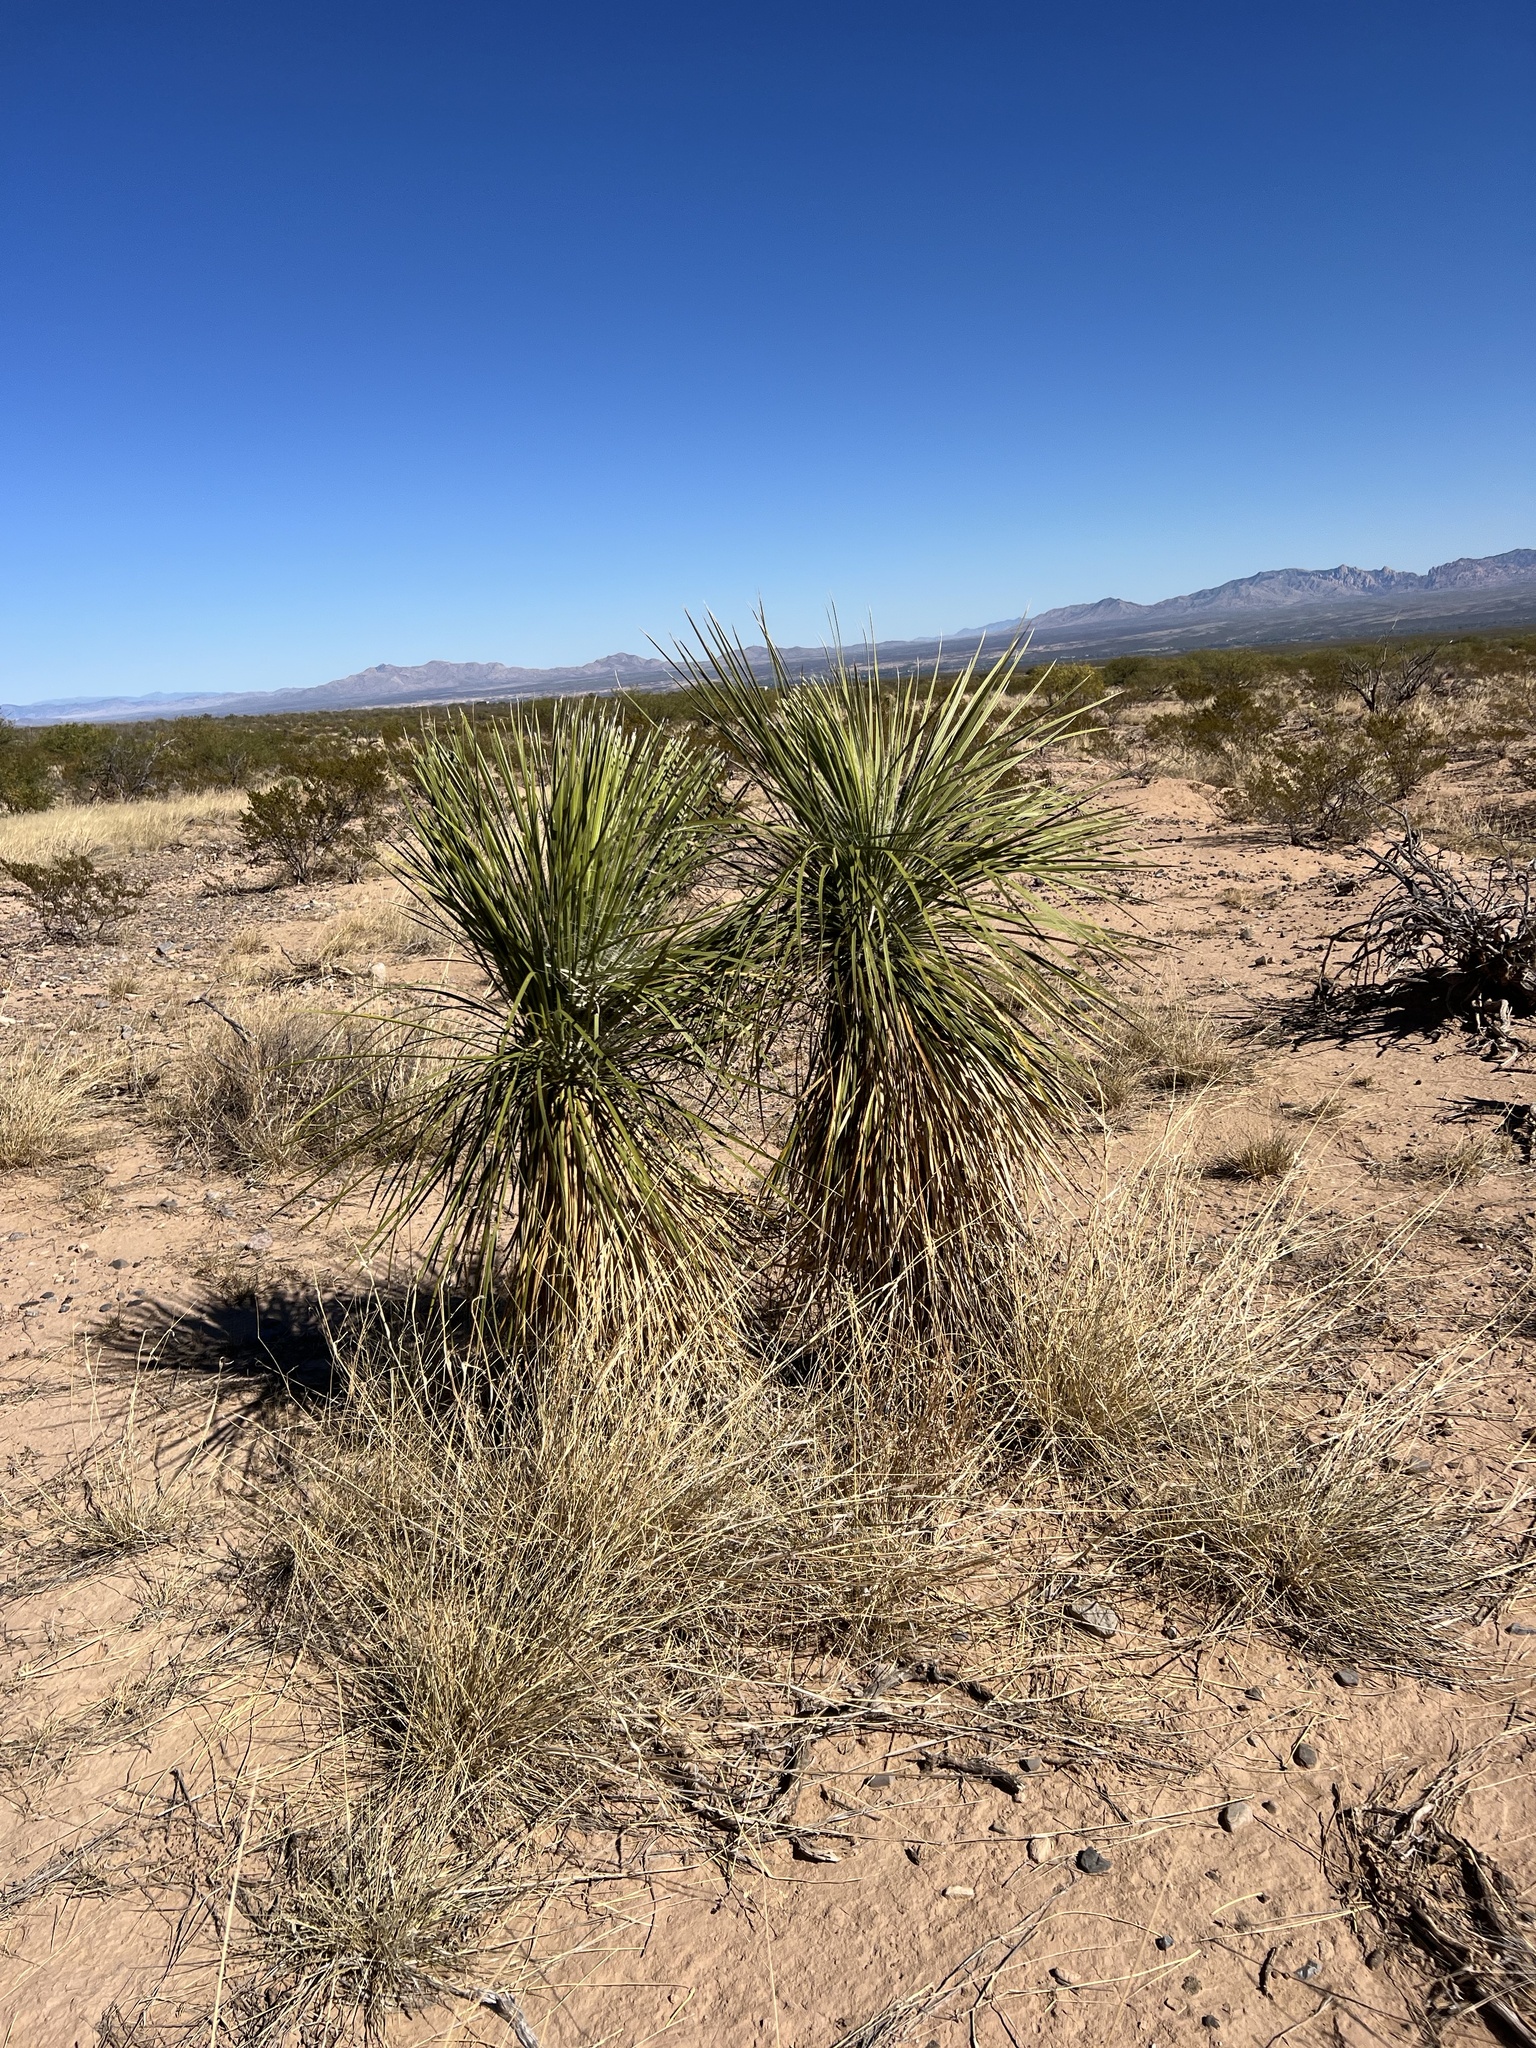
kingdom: Plantae
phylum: Tracheophyta
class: Liliopsida
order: Asparagales
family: Asparagaceae
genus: Yucca
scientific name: Yucca elata
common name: Palmella
